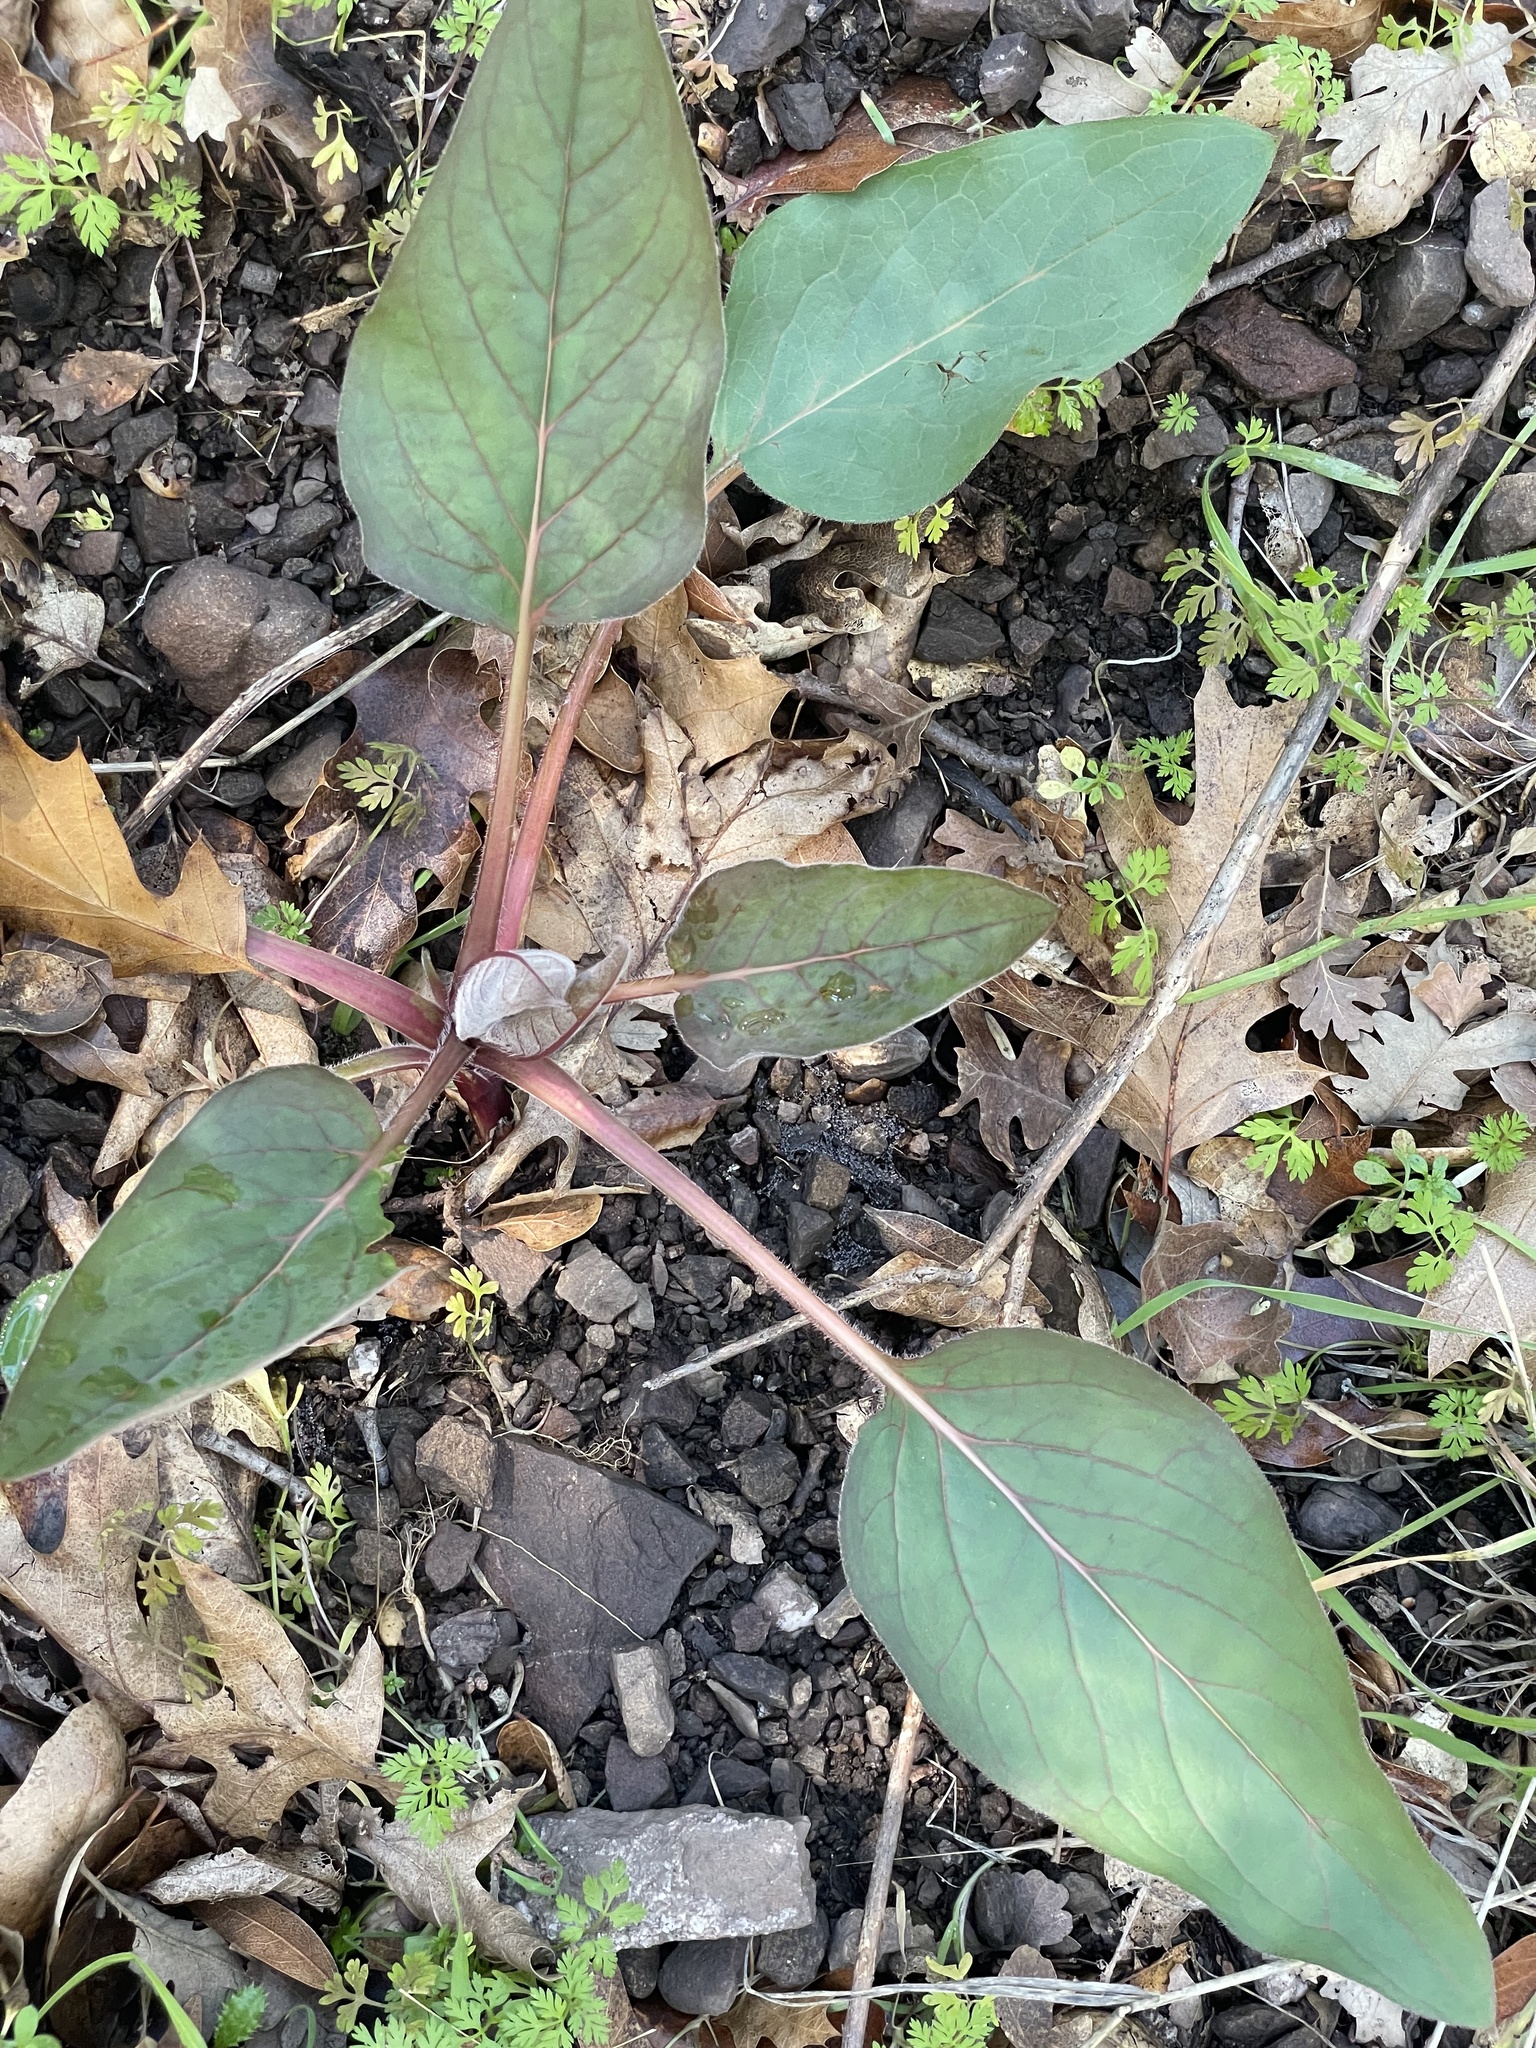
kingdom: Plantae
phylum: Tracheophyta
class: Magnoliopsida
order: Boraginales
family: Boraginaceae
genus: Adelinia
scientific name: Adelinia grande
